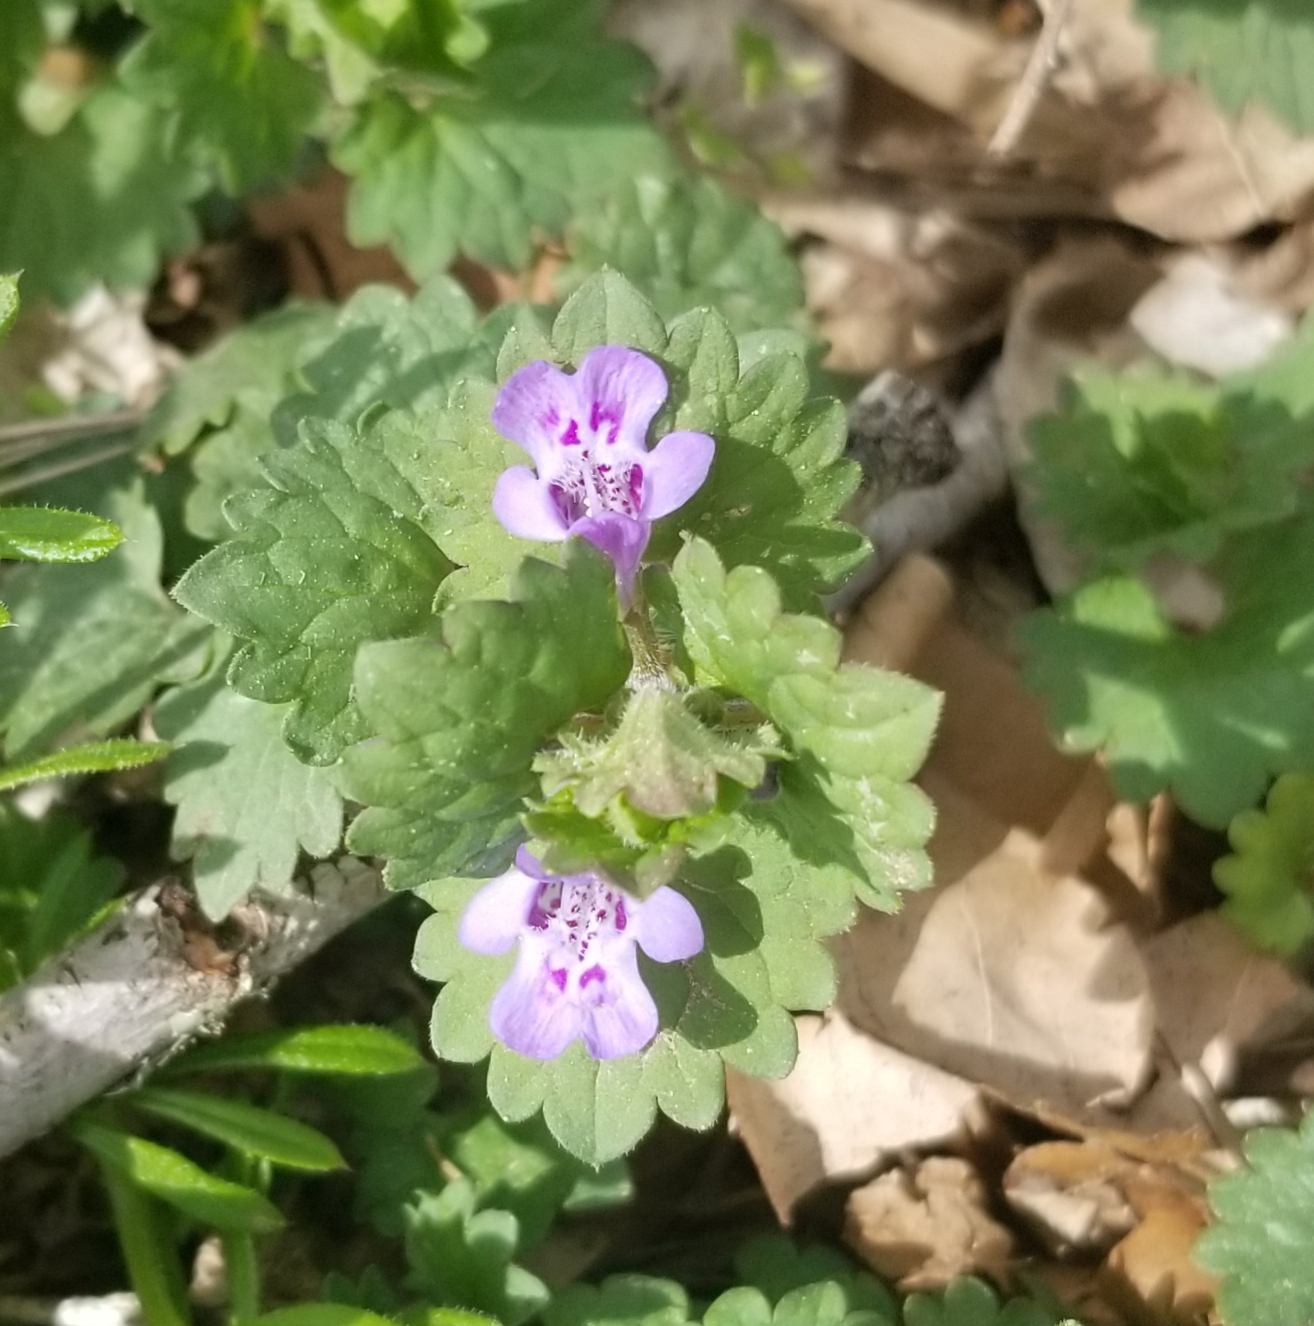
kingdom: Plantae
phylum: Tracheophyta
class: Magnoliopsida
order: Lamiales
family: Lamiaceae
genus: Glechoma
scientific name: Glechoma hederacea
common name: Ground ivy
